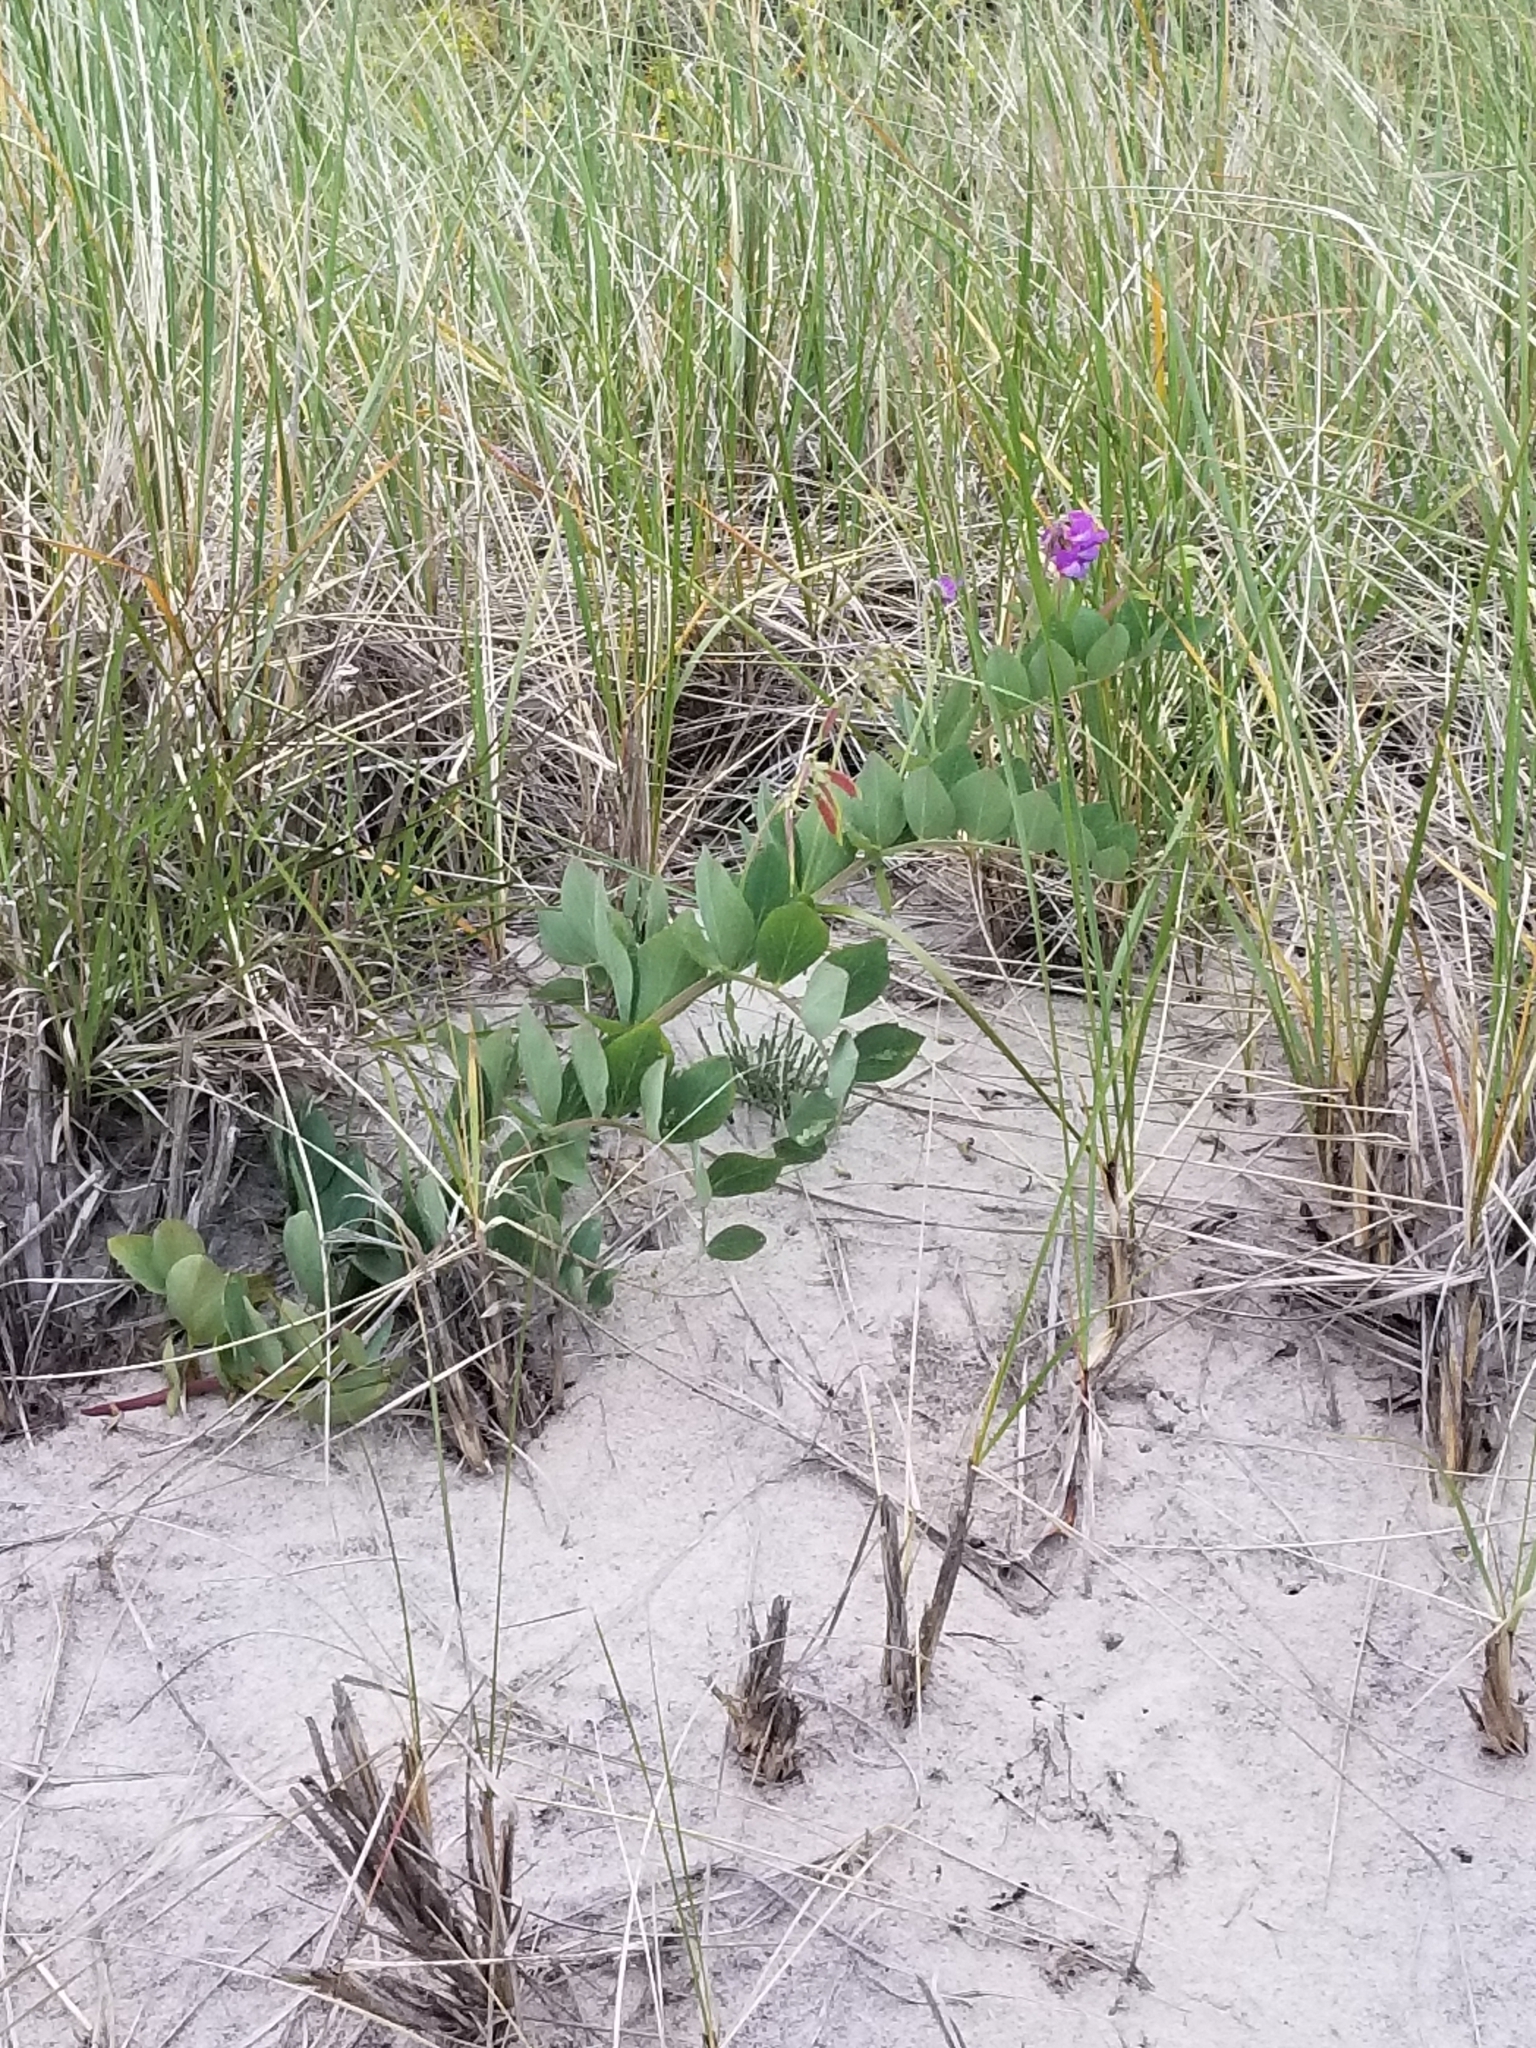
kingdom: Plantae
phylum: Tracheophyta
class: Magnoliopsida
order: Fabales
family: Fabaceae
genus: Lathyrus
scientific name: Lathyrus japonicus
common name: Sea pea
